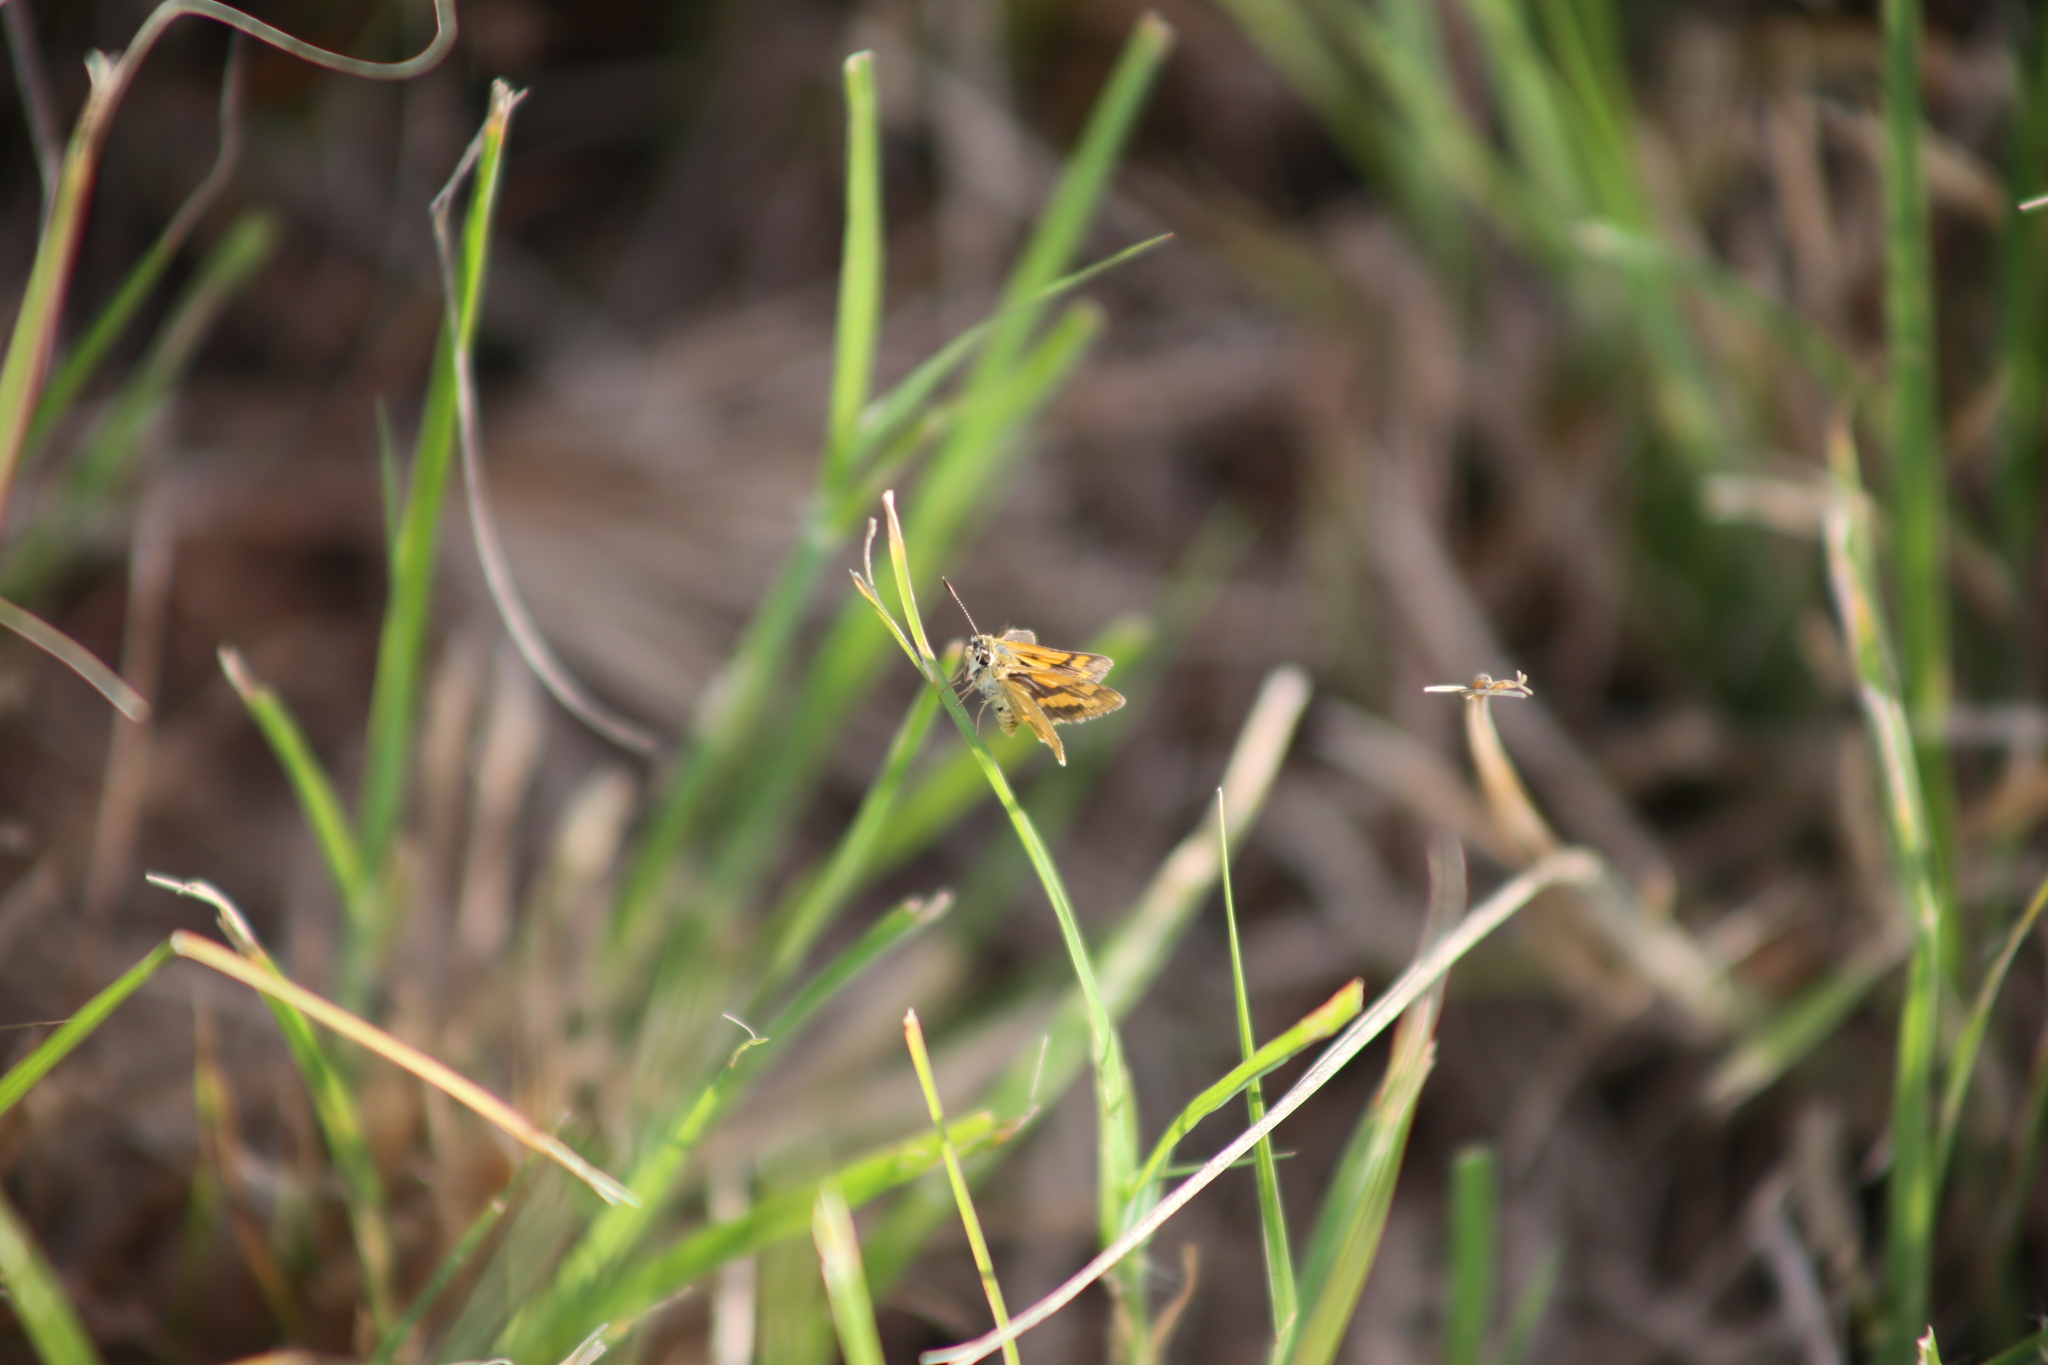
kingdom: Animalia
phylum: Arthropoda
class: Insecta
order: Lepidoptera
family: Hesperiidae
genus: Ocybadistes
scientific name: Ocybadistes flavovittata
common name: Narrow-brand grass-dart
